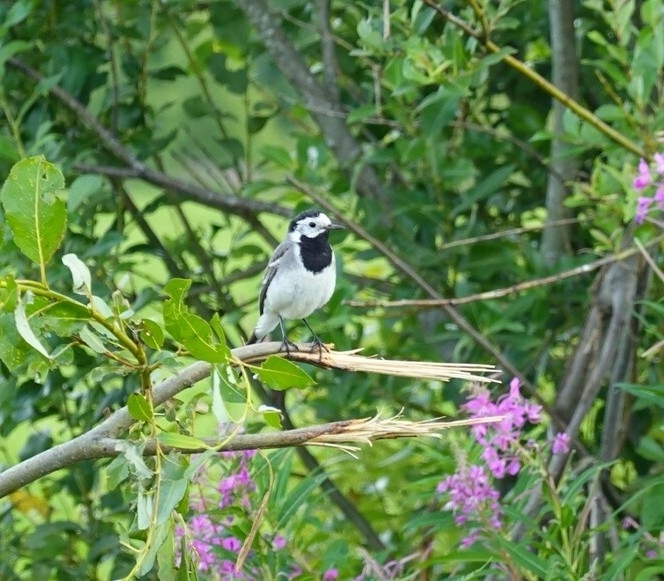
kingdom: Animalia
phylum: Chordata
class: Aves
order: Passeriformes
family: Motacillidae
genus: Motacilla
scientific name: Motacilla alba
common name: White wagtail
